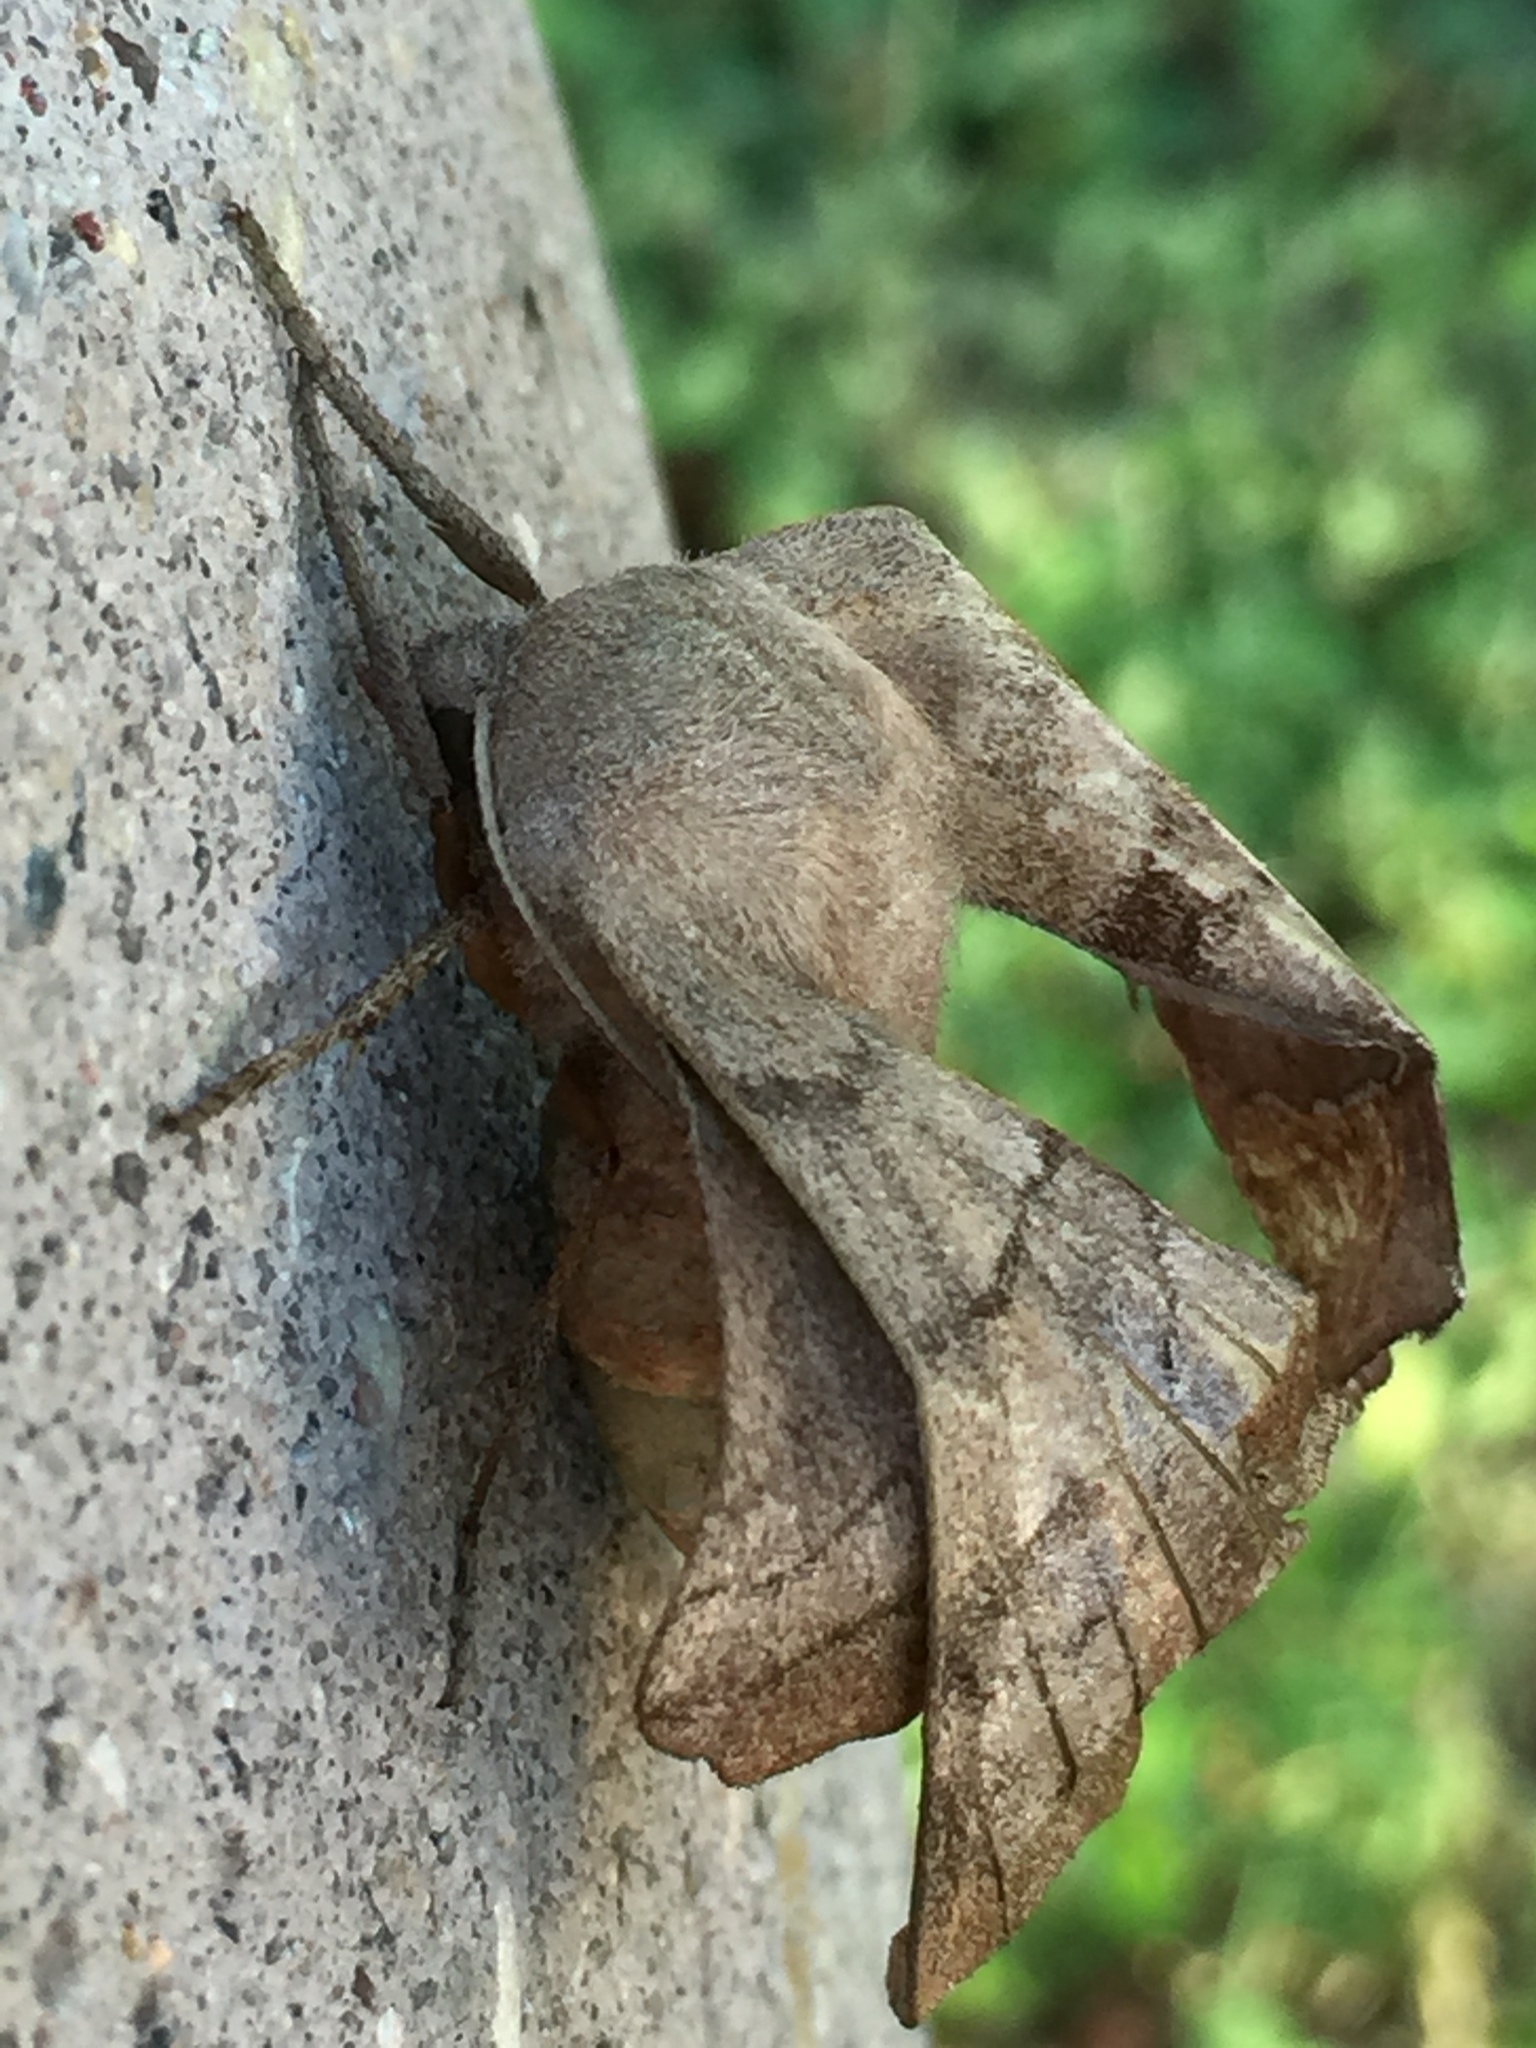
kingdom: Animalia
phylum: Arthropoda
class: Insecta
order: Lepidoptera
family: Sphingidae
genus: Amorpha
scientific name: Amorpha juglandis
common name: Walnut sphinx
